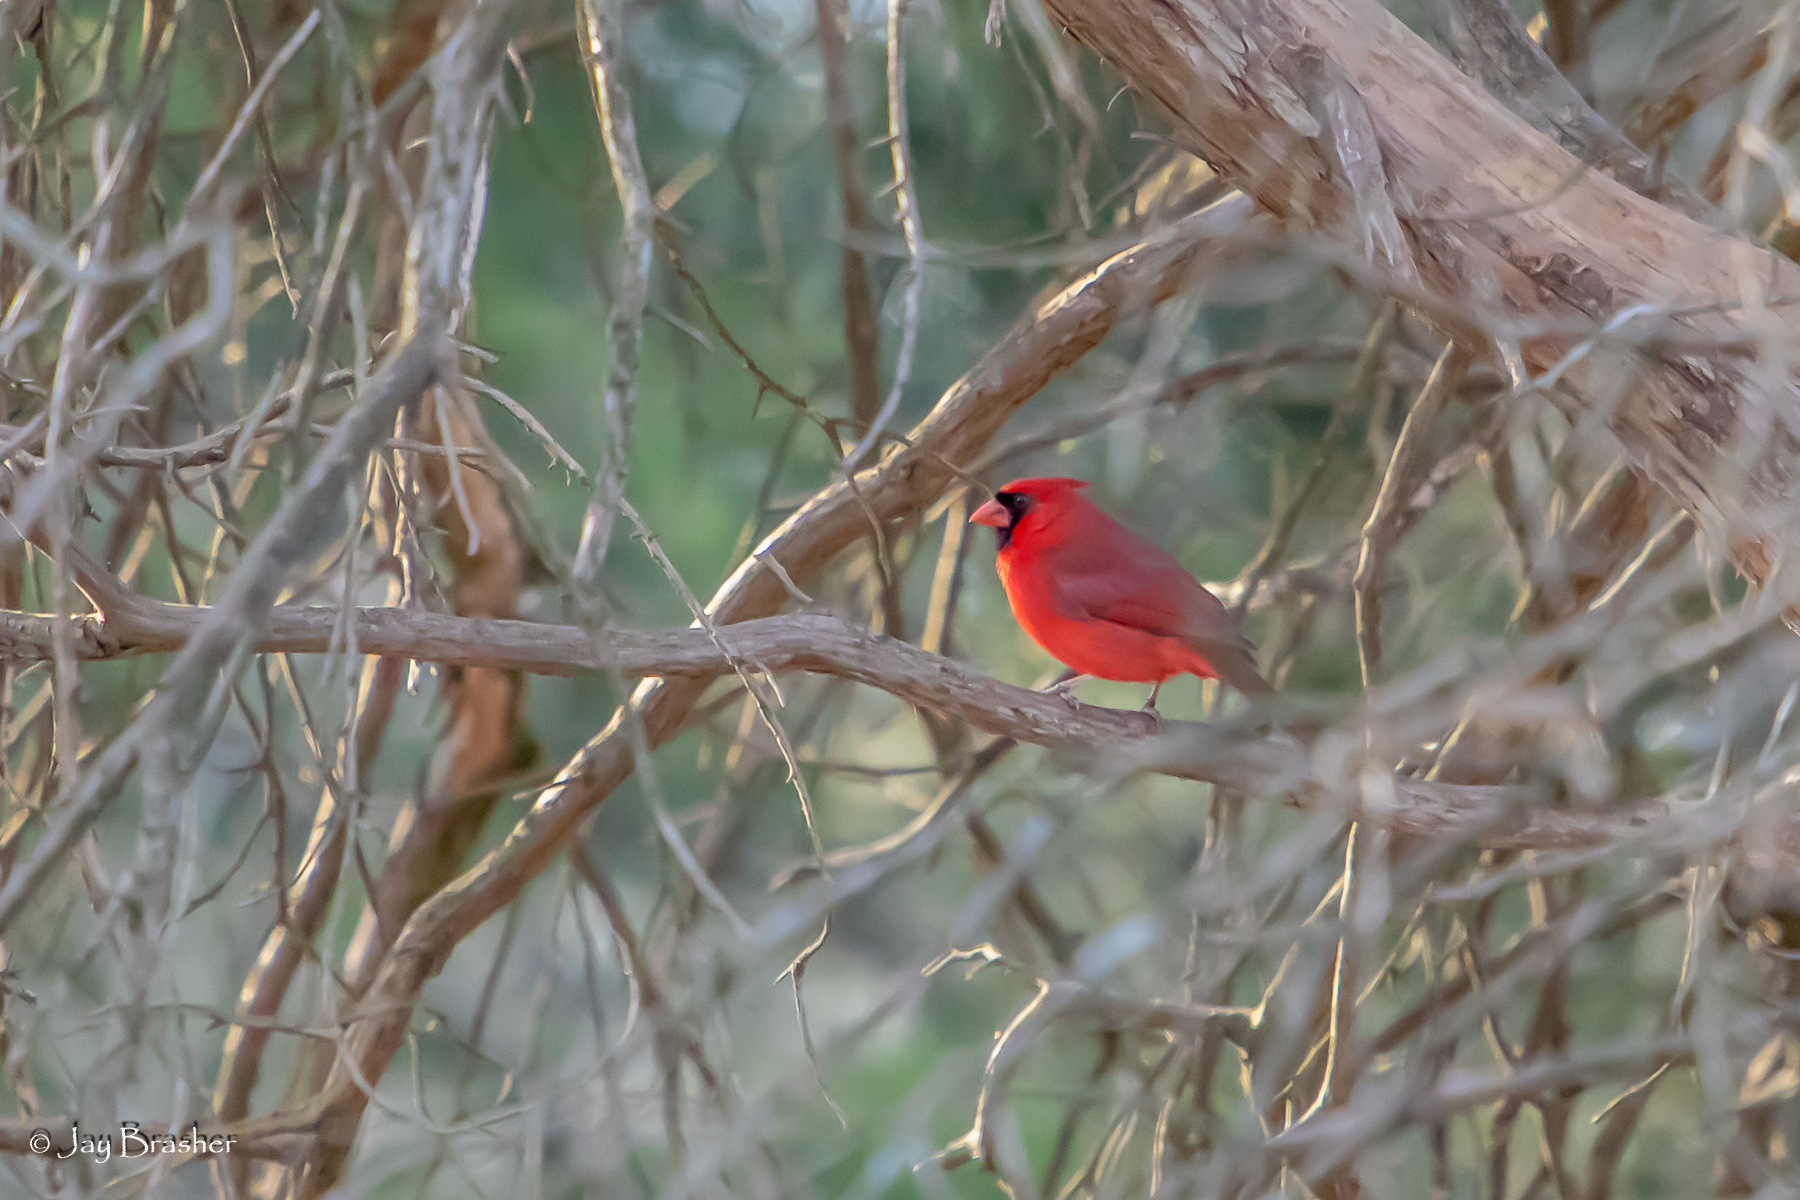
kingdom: Animalia
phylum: Chordata
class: Aves
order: Passeriformes
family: Cardinalidae
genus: Cardinalis
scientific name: Cardinalis cardinalis
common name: Northern cardinal
